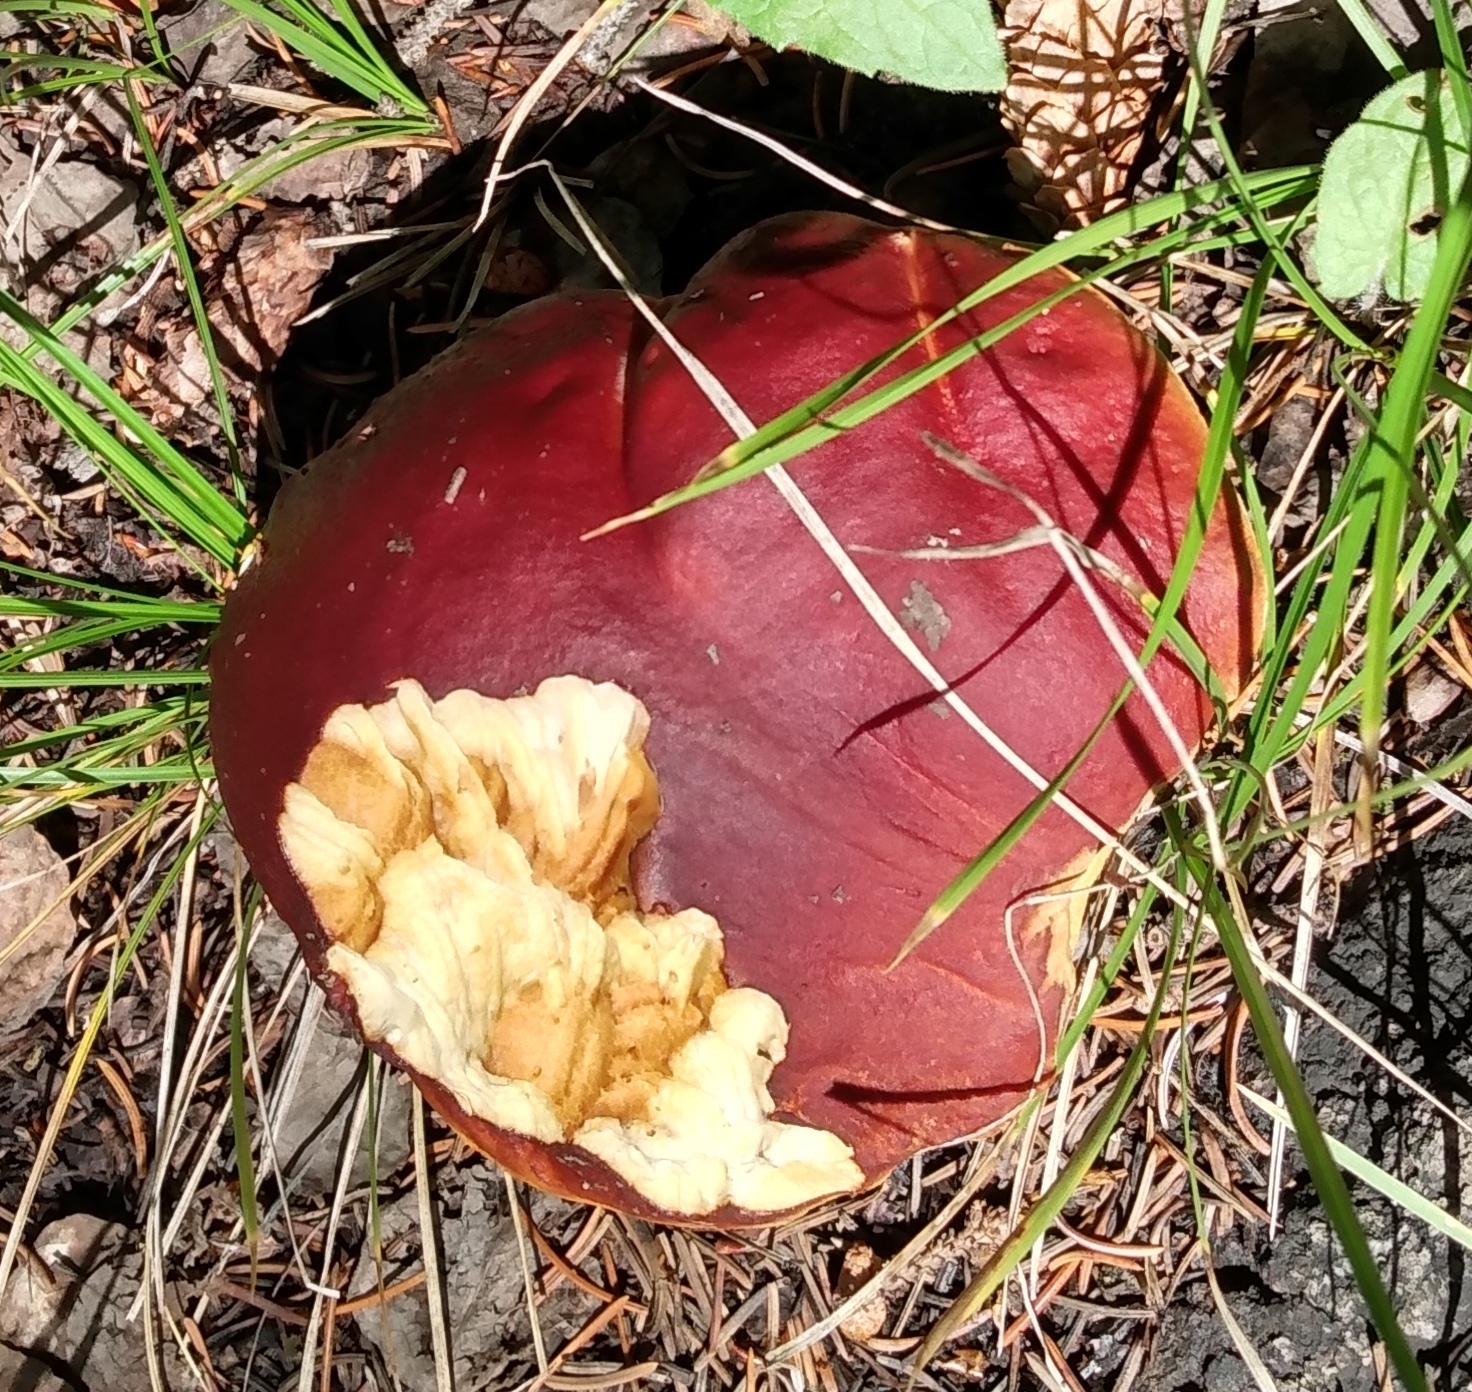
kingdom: Fungi
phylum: Basidiomycota
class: Agaricomycetes
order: Boletales
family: Boletaceae
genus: Boletus
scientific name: Boletus rubriceps
